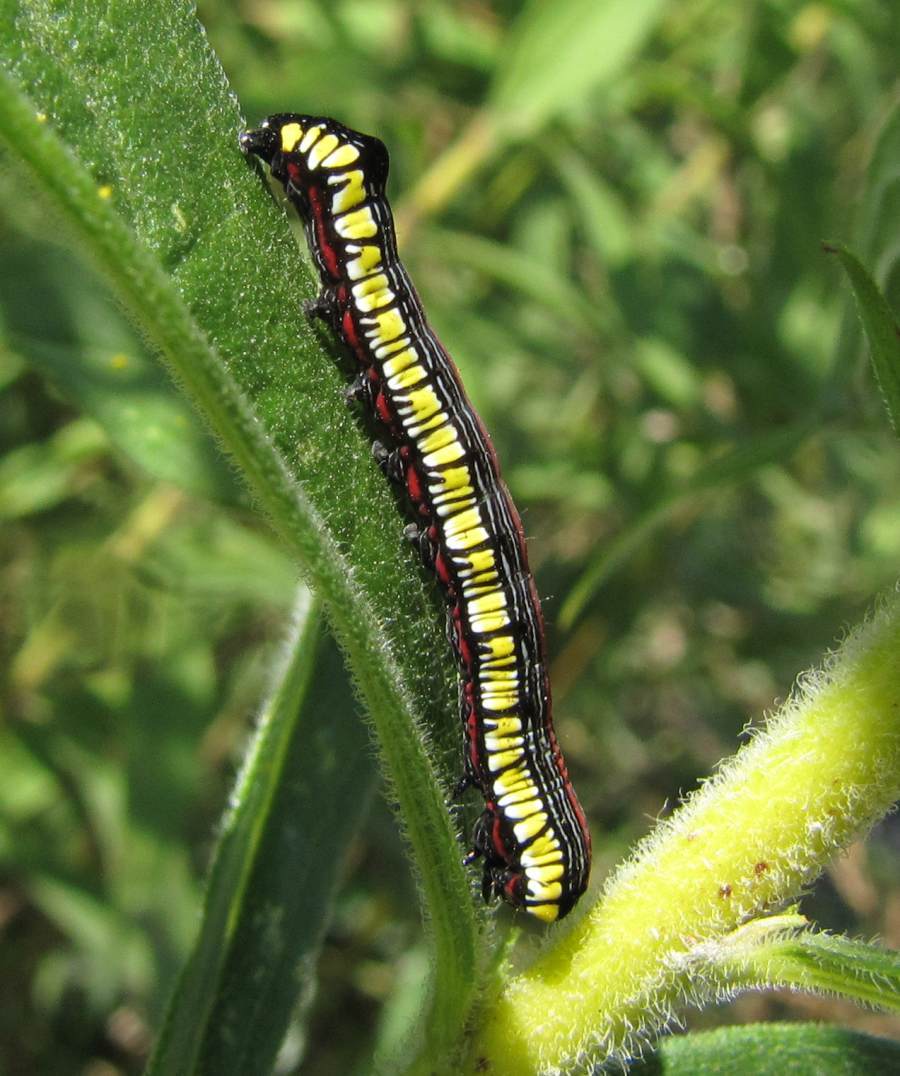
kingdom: Animalia
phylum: Arthropoda
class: Insecta
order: Lepidoptera
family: Noctuidae
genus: Cucullia
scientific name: Cucullia convexipennis
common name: Brown-hooded owlet
